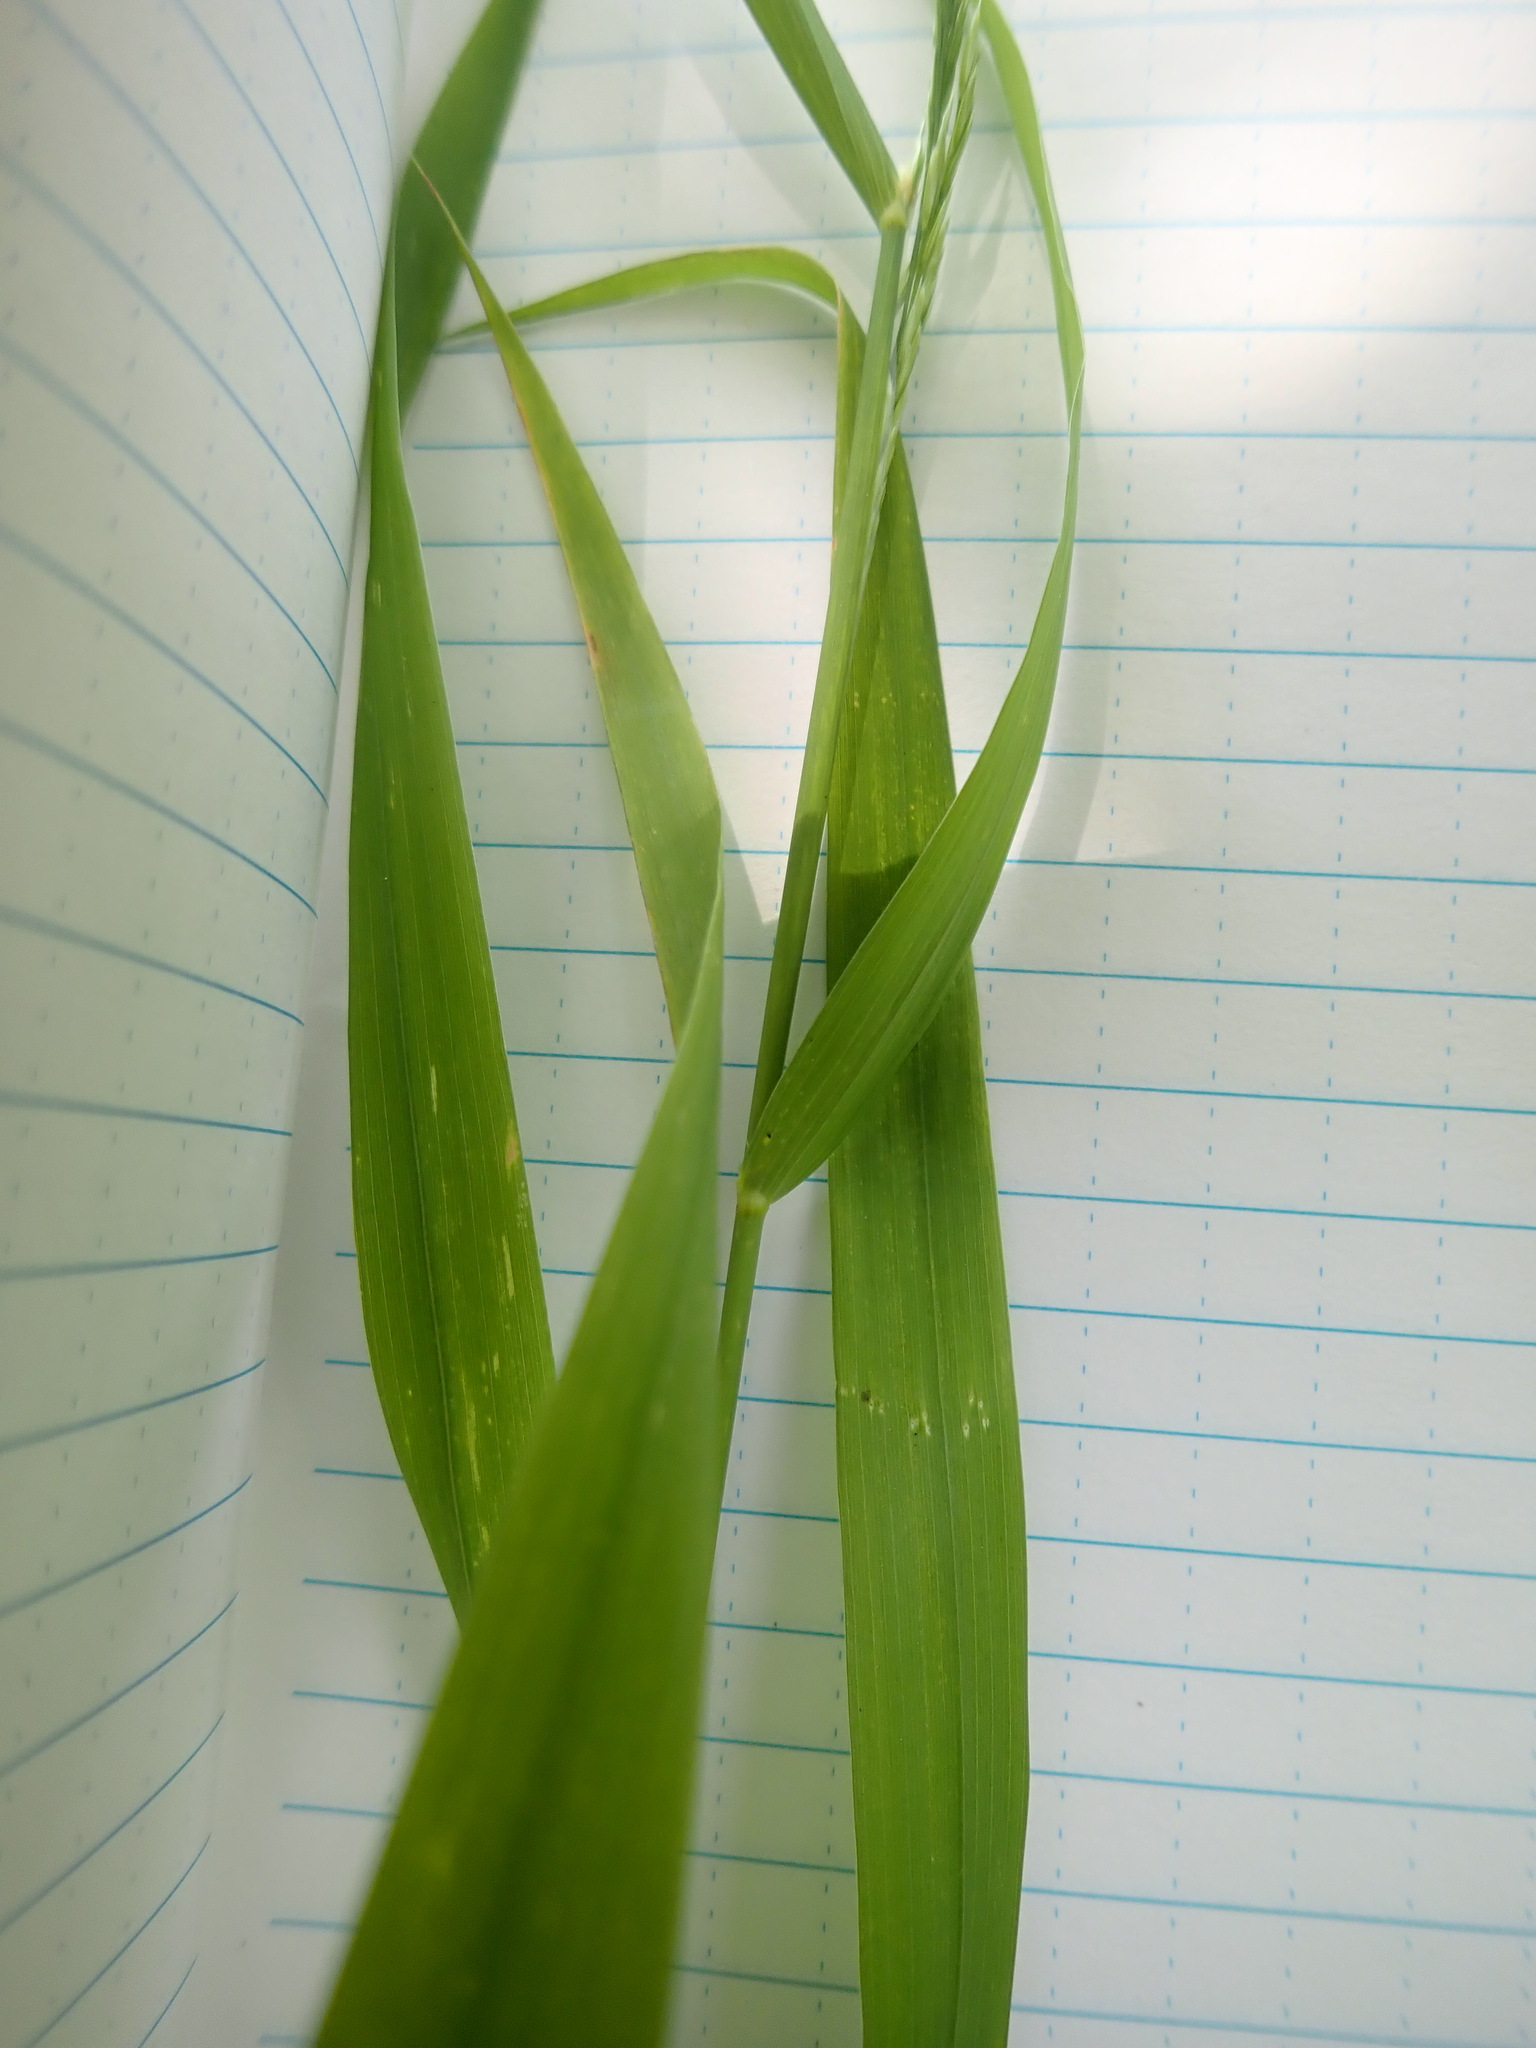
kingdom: Plantae
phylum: Tracheophyta
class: Liliopsida
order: Poales
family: Poaceae
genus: Cinna
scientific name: Cinna arundinacea
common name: Stout woodreed
